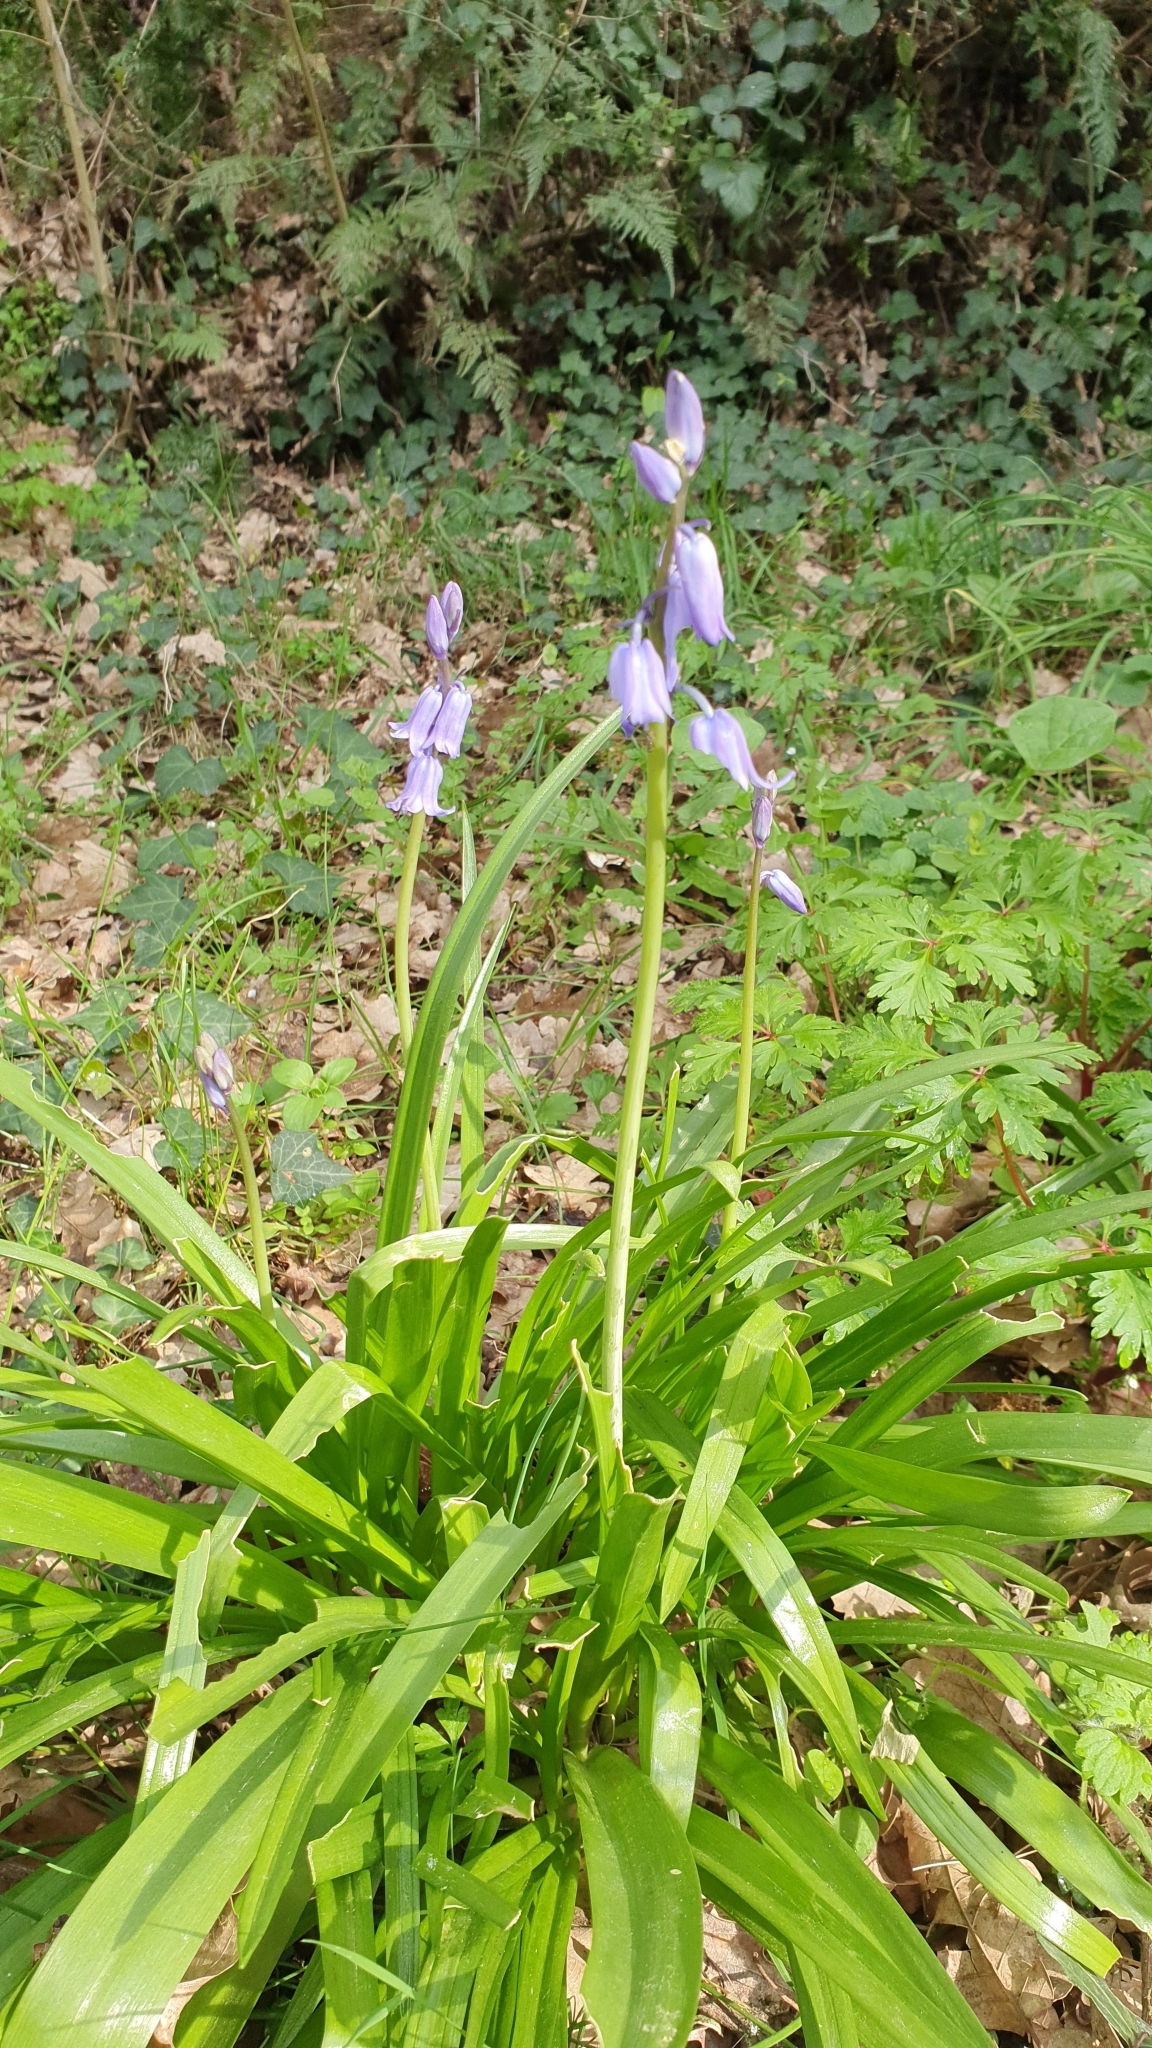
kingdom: Plantae
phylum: Tracheophyta
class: Liliopsida
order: Asparagales
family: Asparagaceae
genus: Hyacinthoides
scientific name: Hyacinthoides non-scripta
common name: Bluebell
